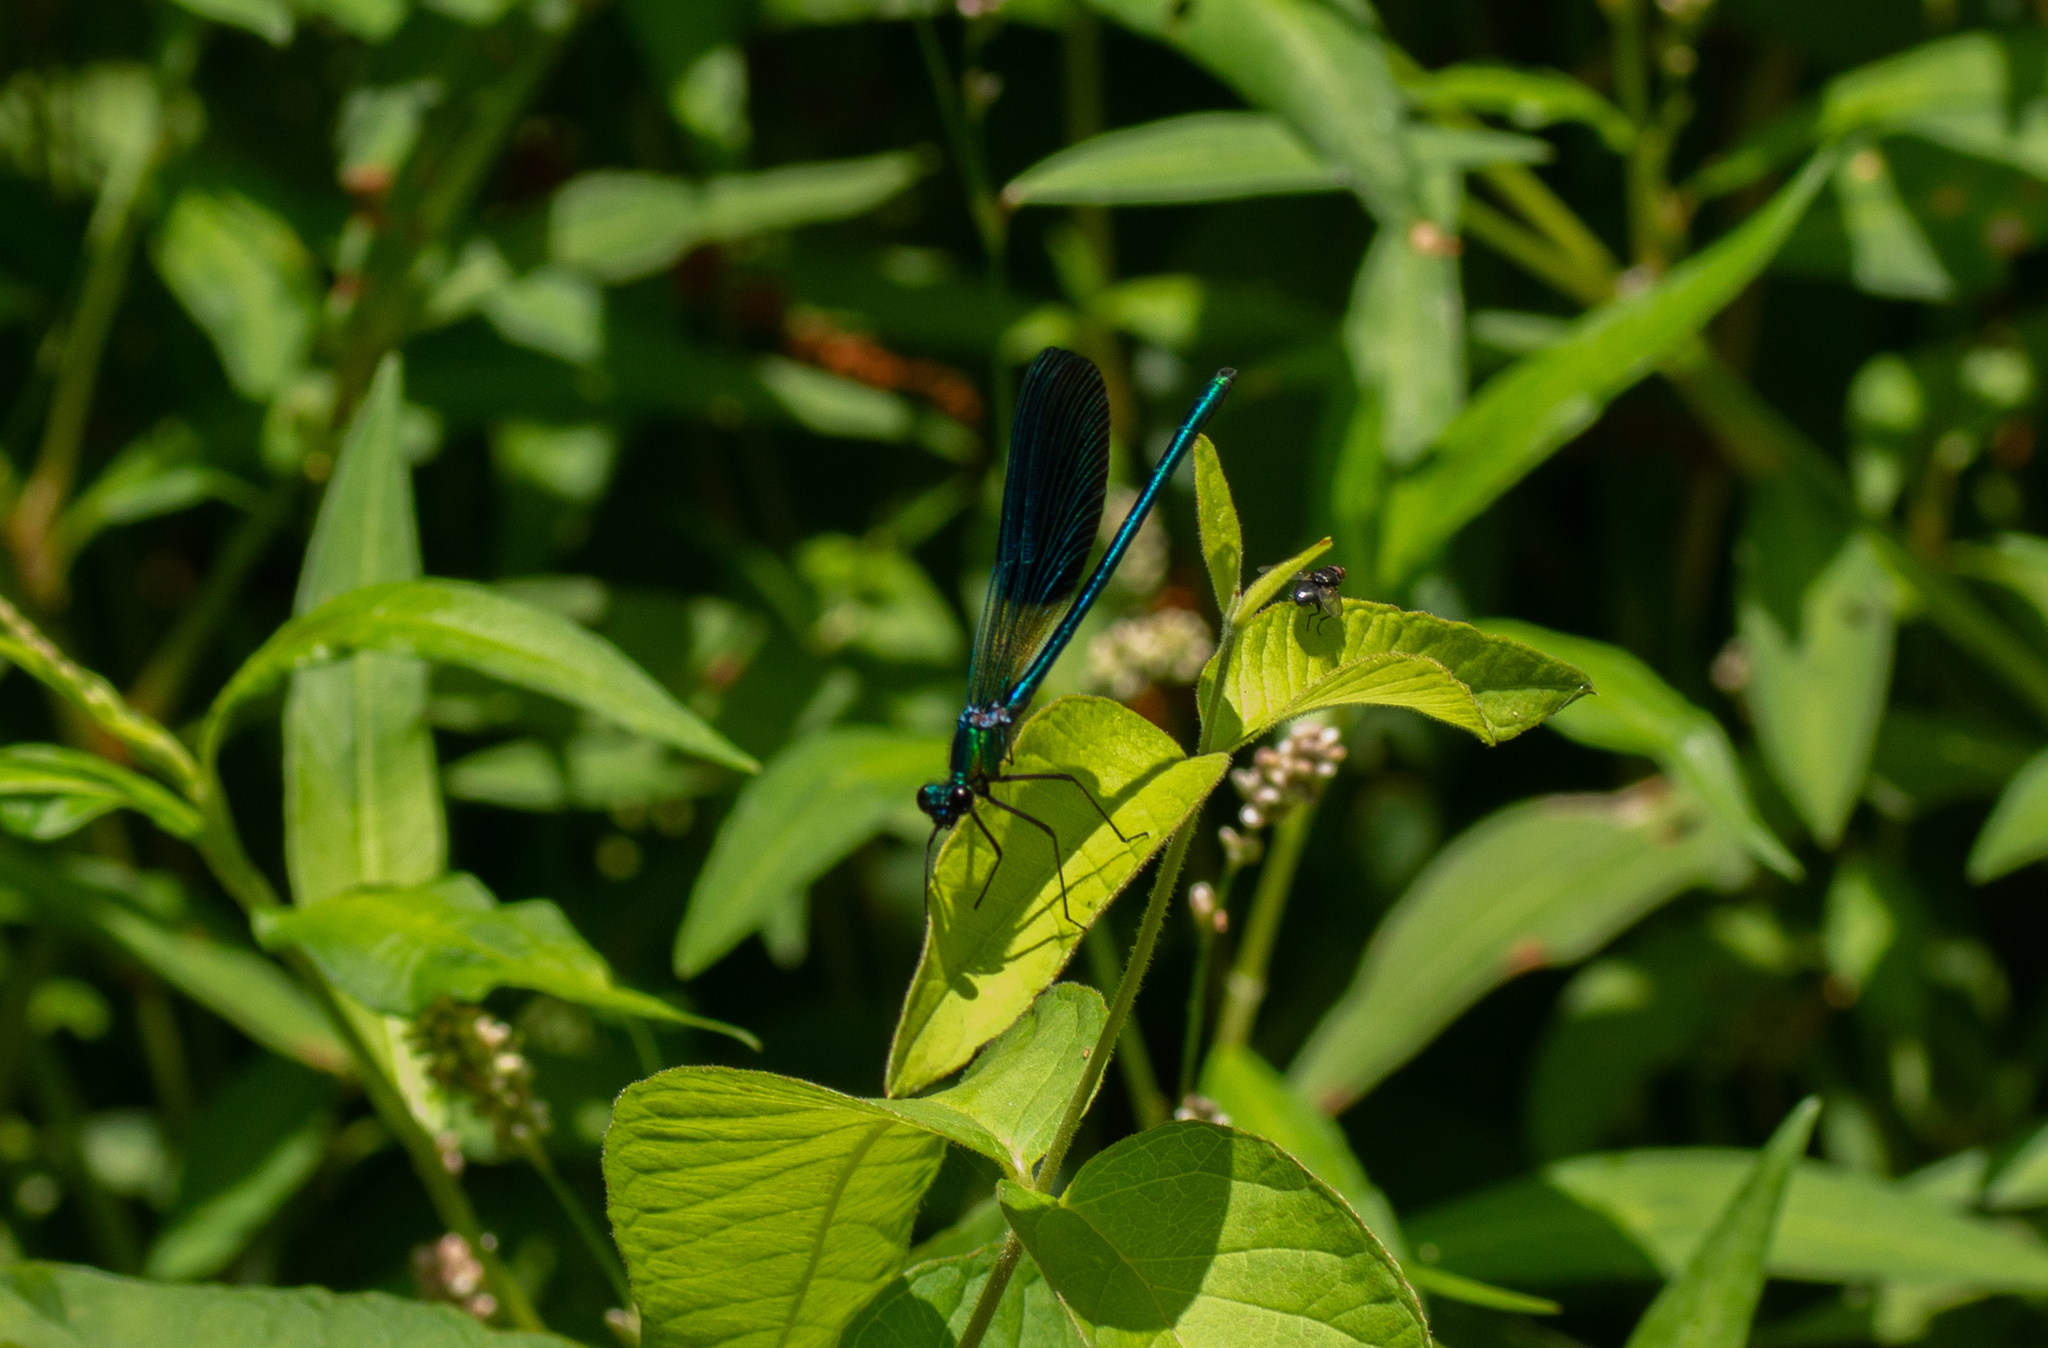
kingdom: Animalia
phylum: Arthropoda
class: Insecta
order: Odonata
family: Calopterygidae
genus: Calopteryx
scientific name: Calopteryx xanthostoma
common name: Western demoiselle
